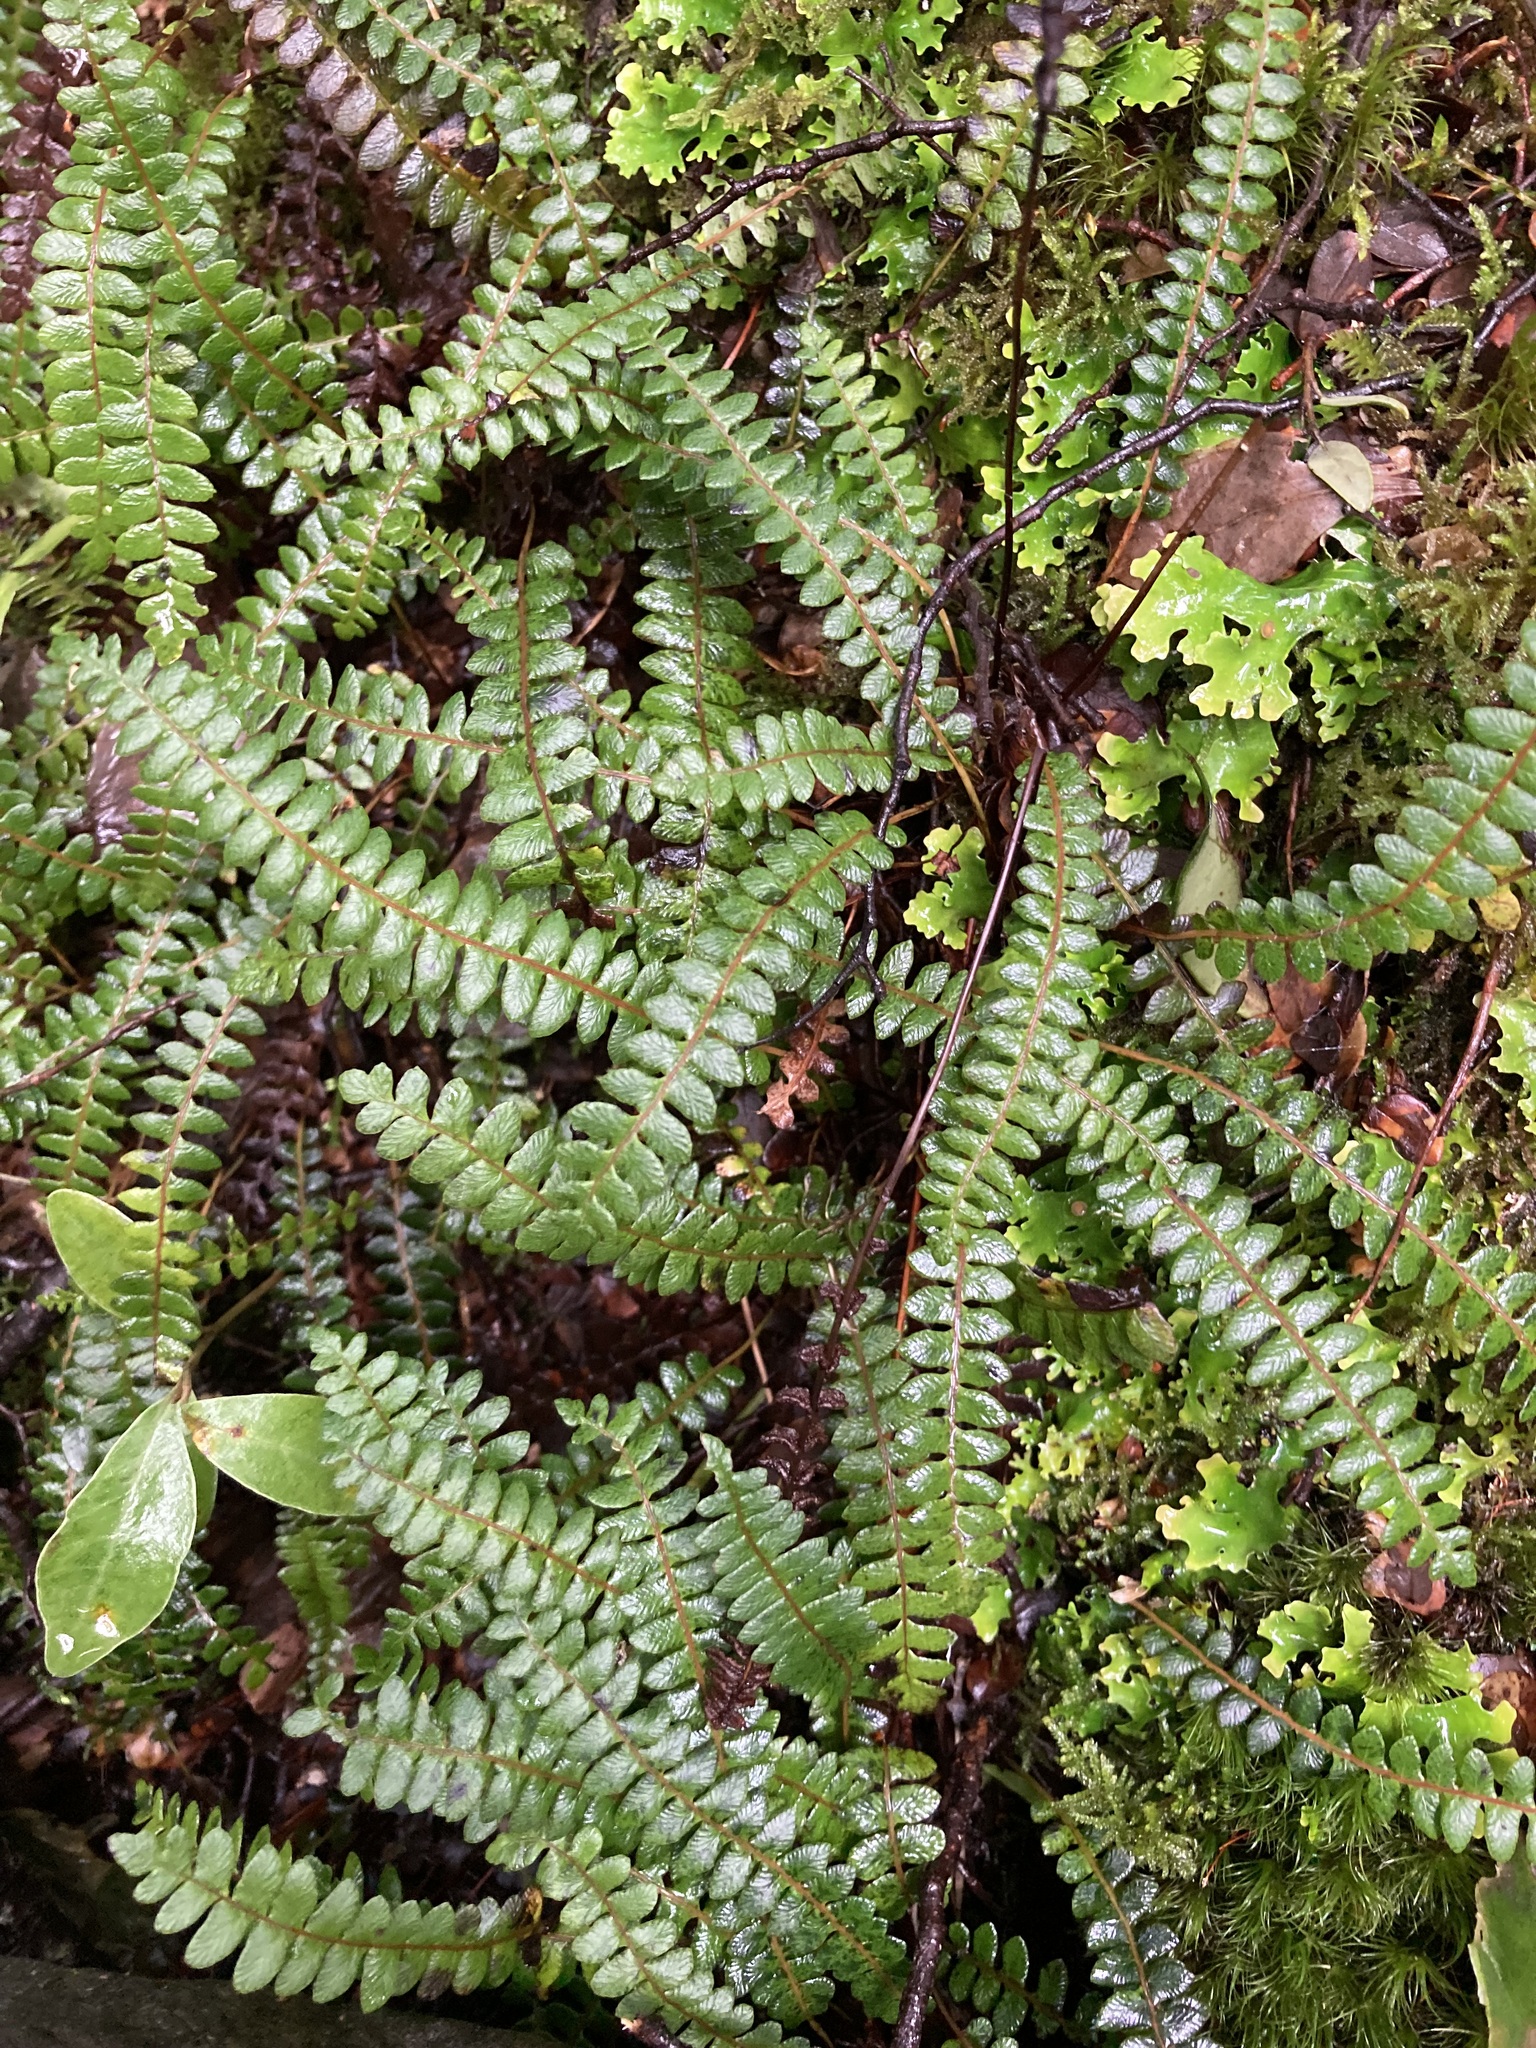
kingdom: Plantae
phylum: Tracheophyta
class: Polypodiopsida
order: Polypodiales
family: Blechnaceae
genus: Austroblechnum
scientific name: Austroblechnum penna-marina
